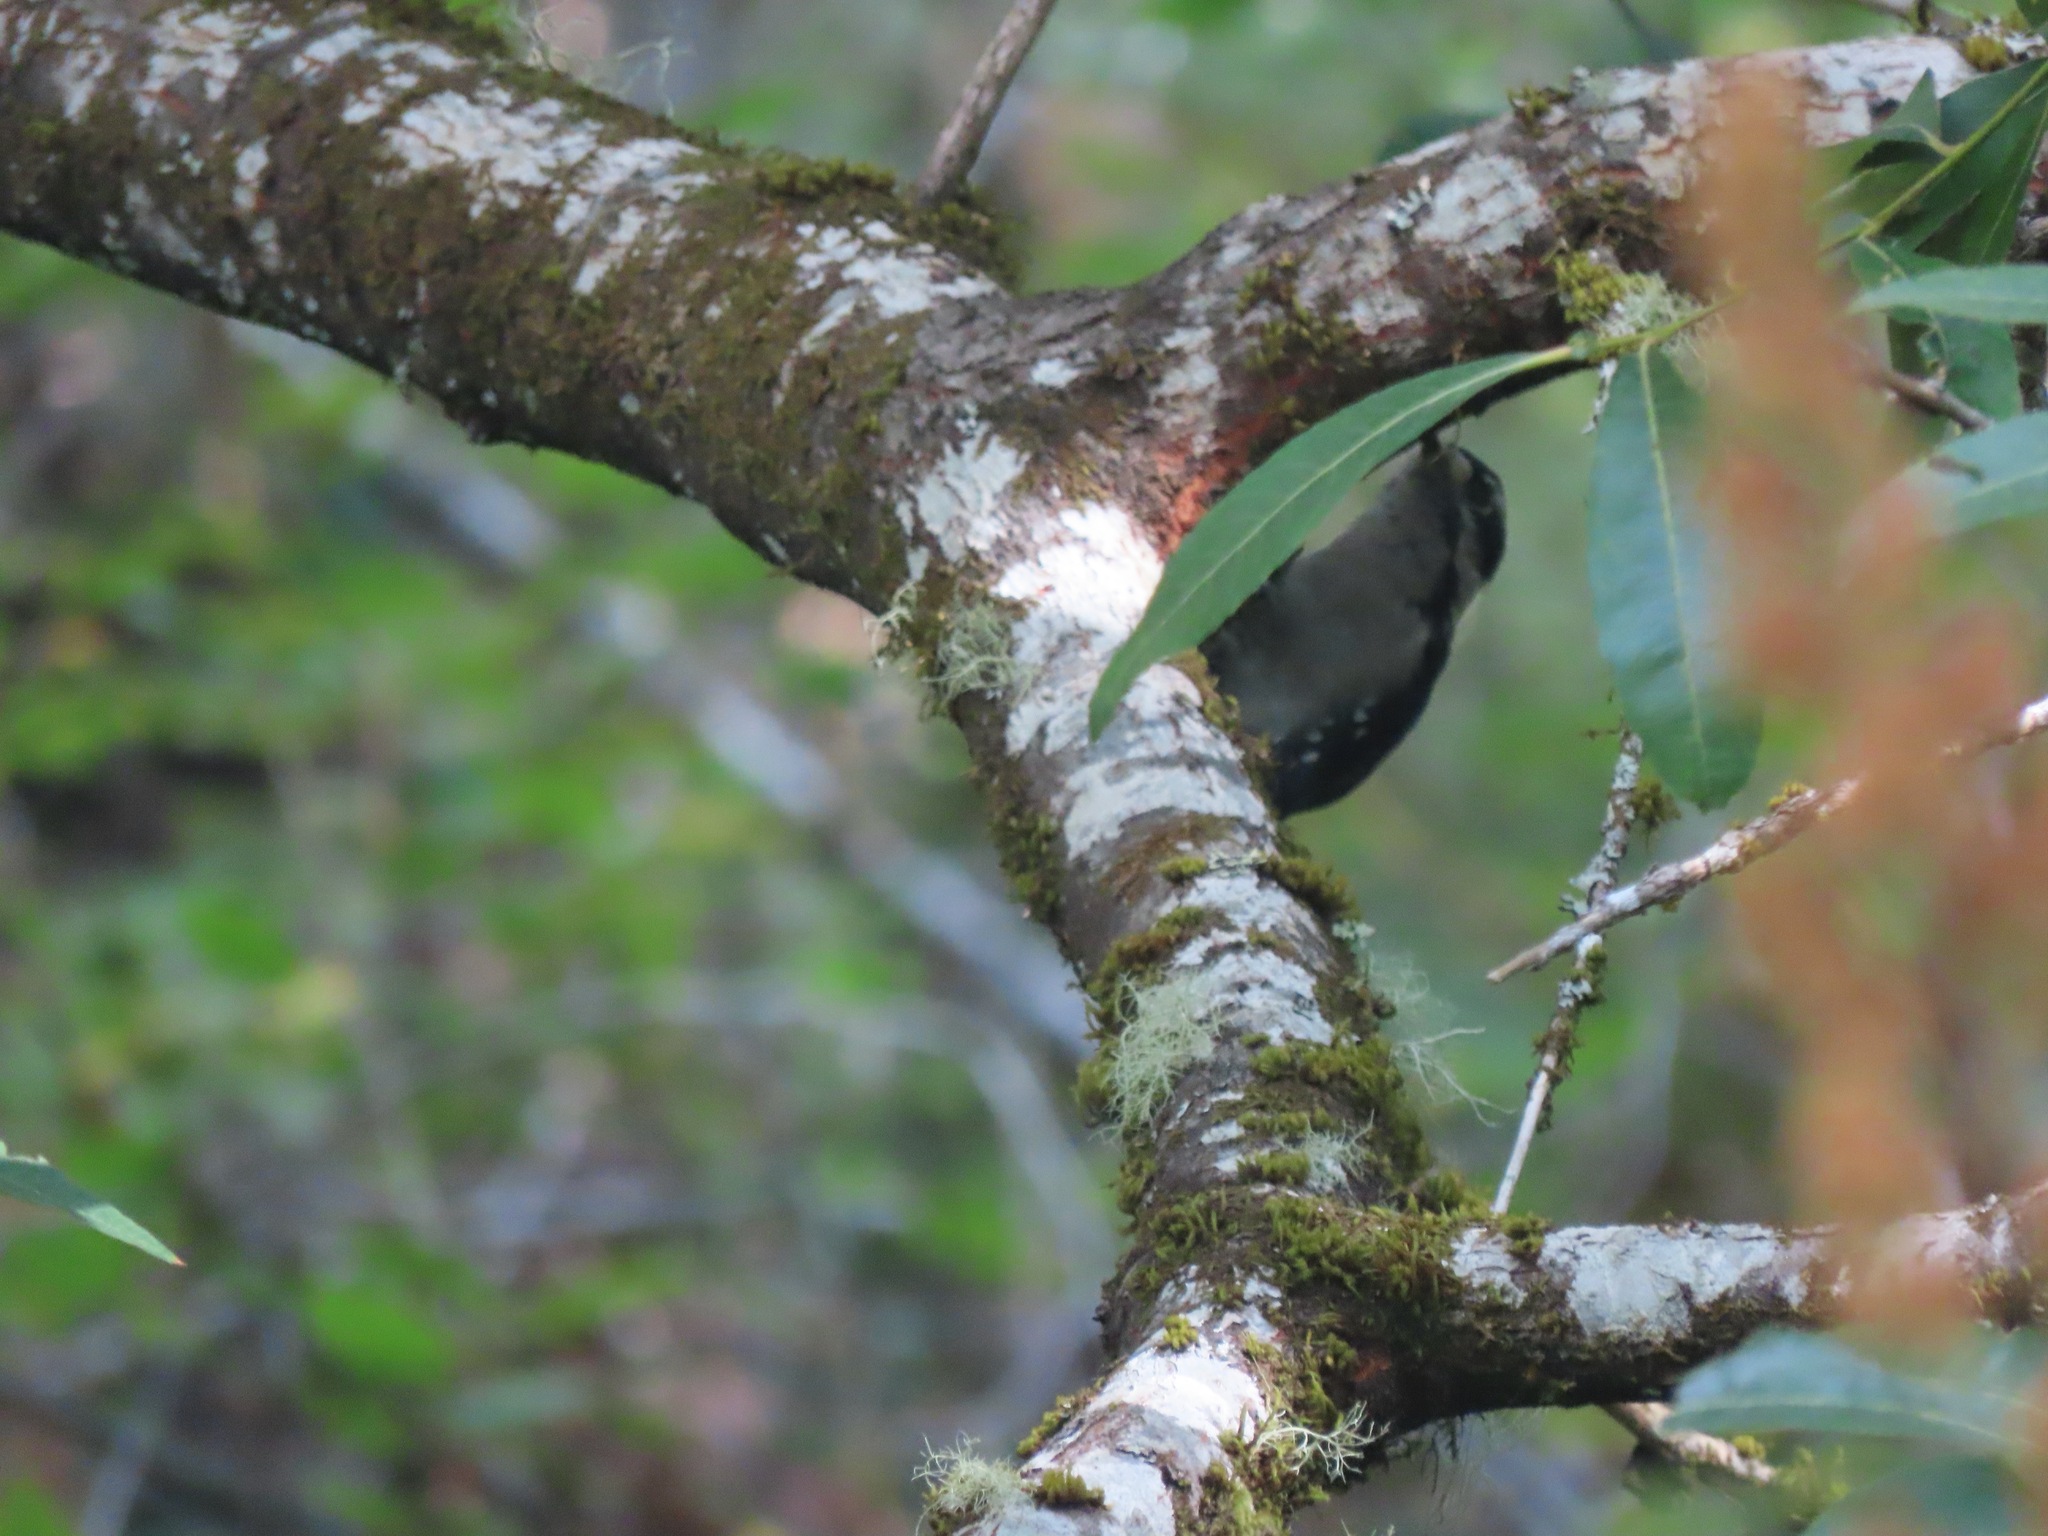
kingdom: Animalia
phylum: Chordata
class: Aves
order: Piciformes
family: Picidae
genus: Dryobates
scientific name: Dryobates pubescens
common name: Downy woodpecker
